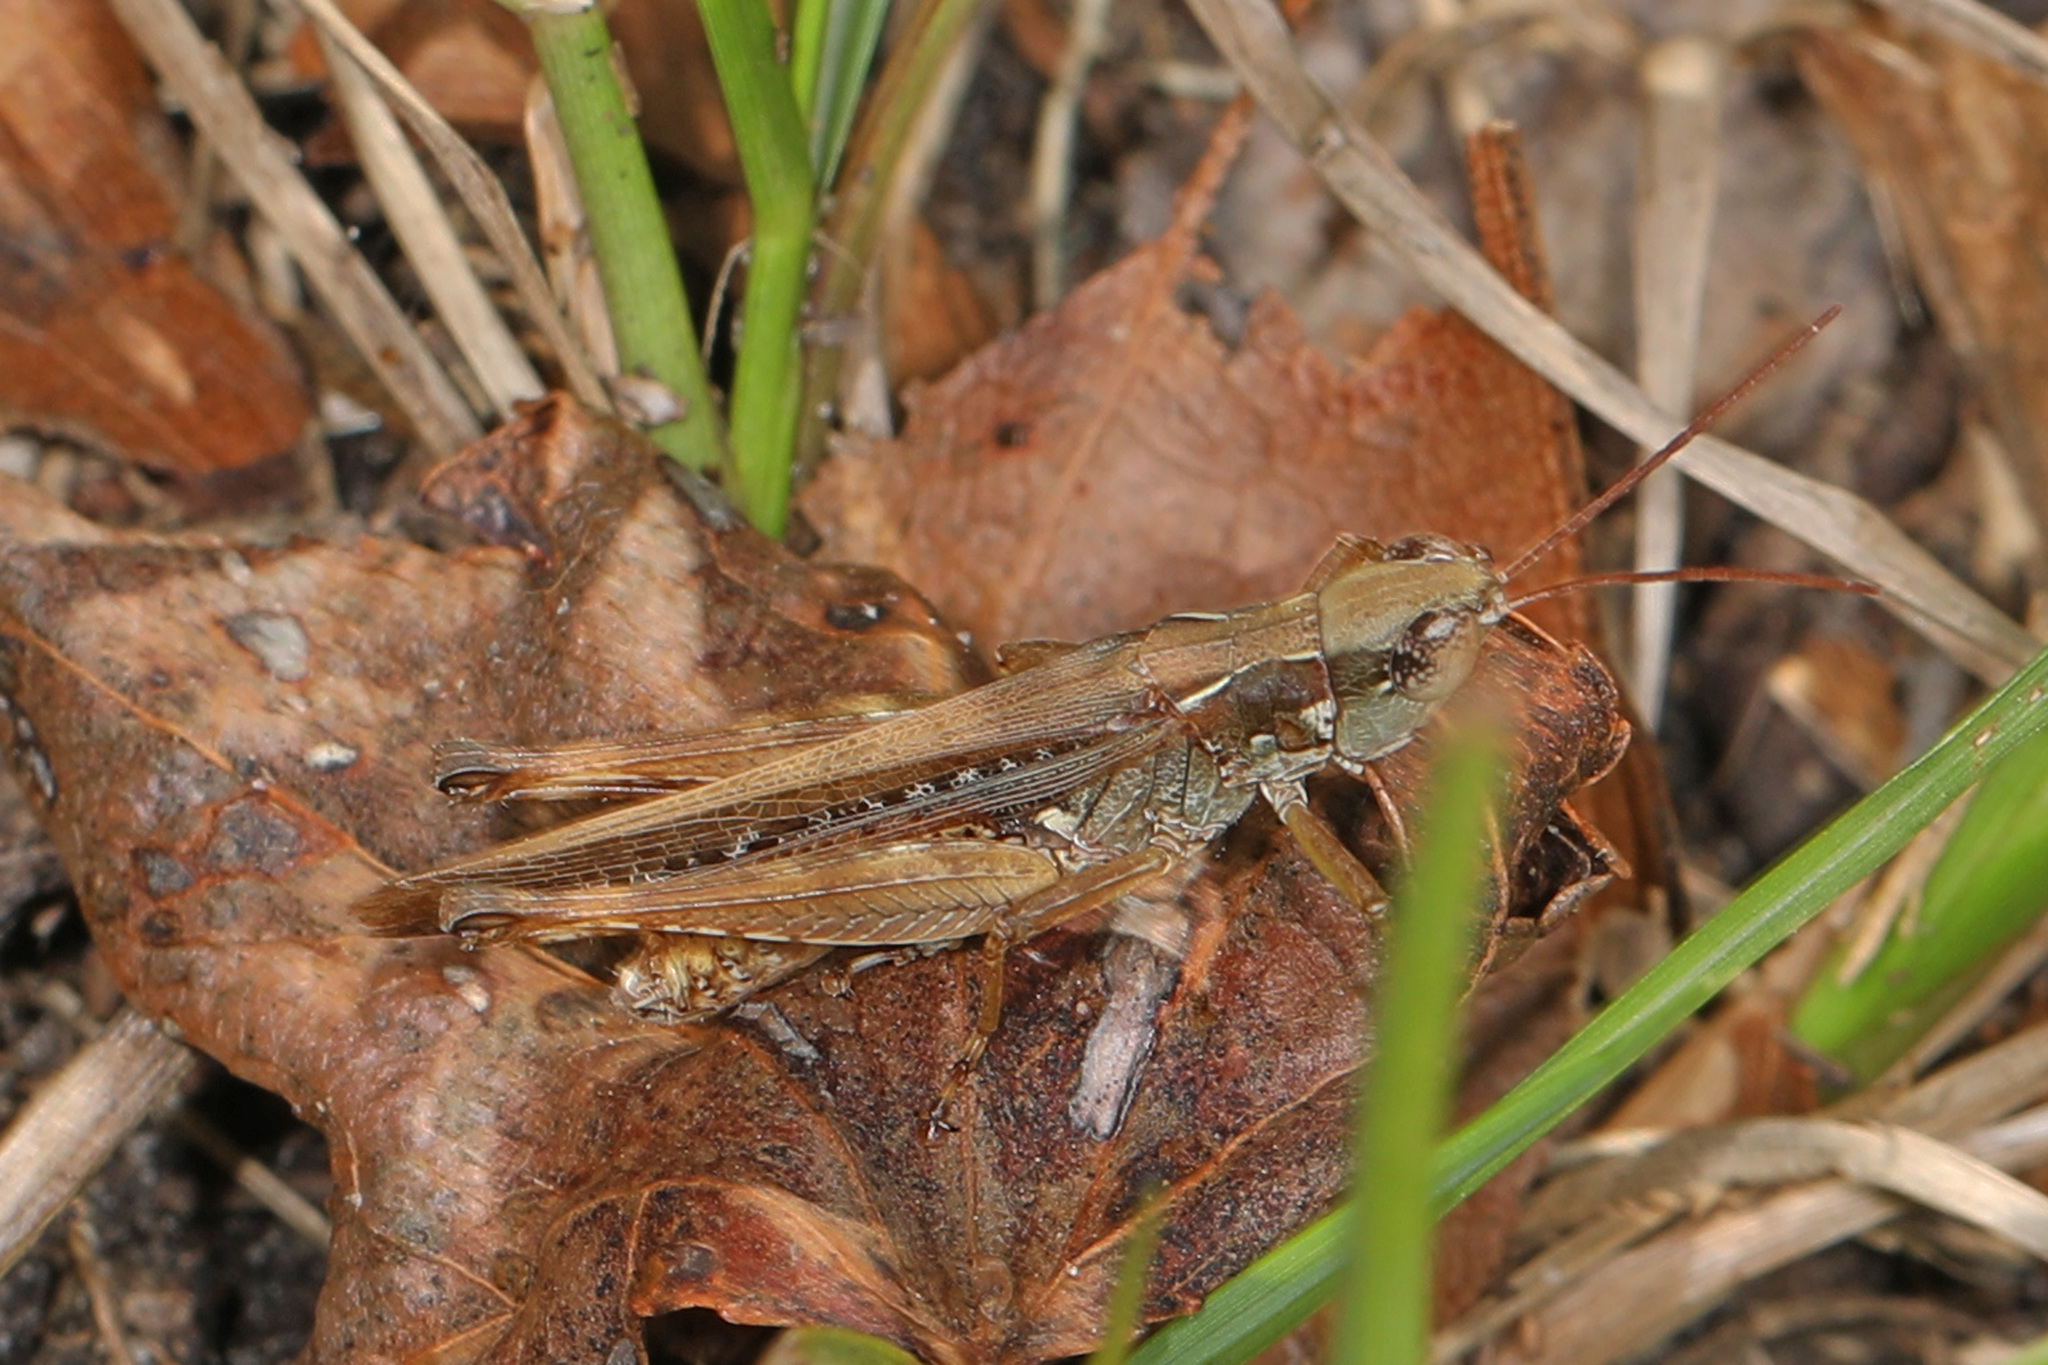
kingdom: Animalia
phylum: Arthropoda
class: Insecta
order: Orthoptera
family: Acrididae
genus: Orphulella
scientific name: Orphulella pelidna
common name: Spotted-wing grasshopper
